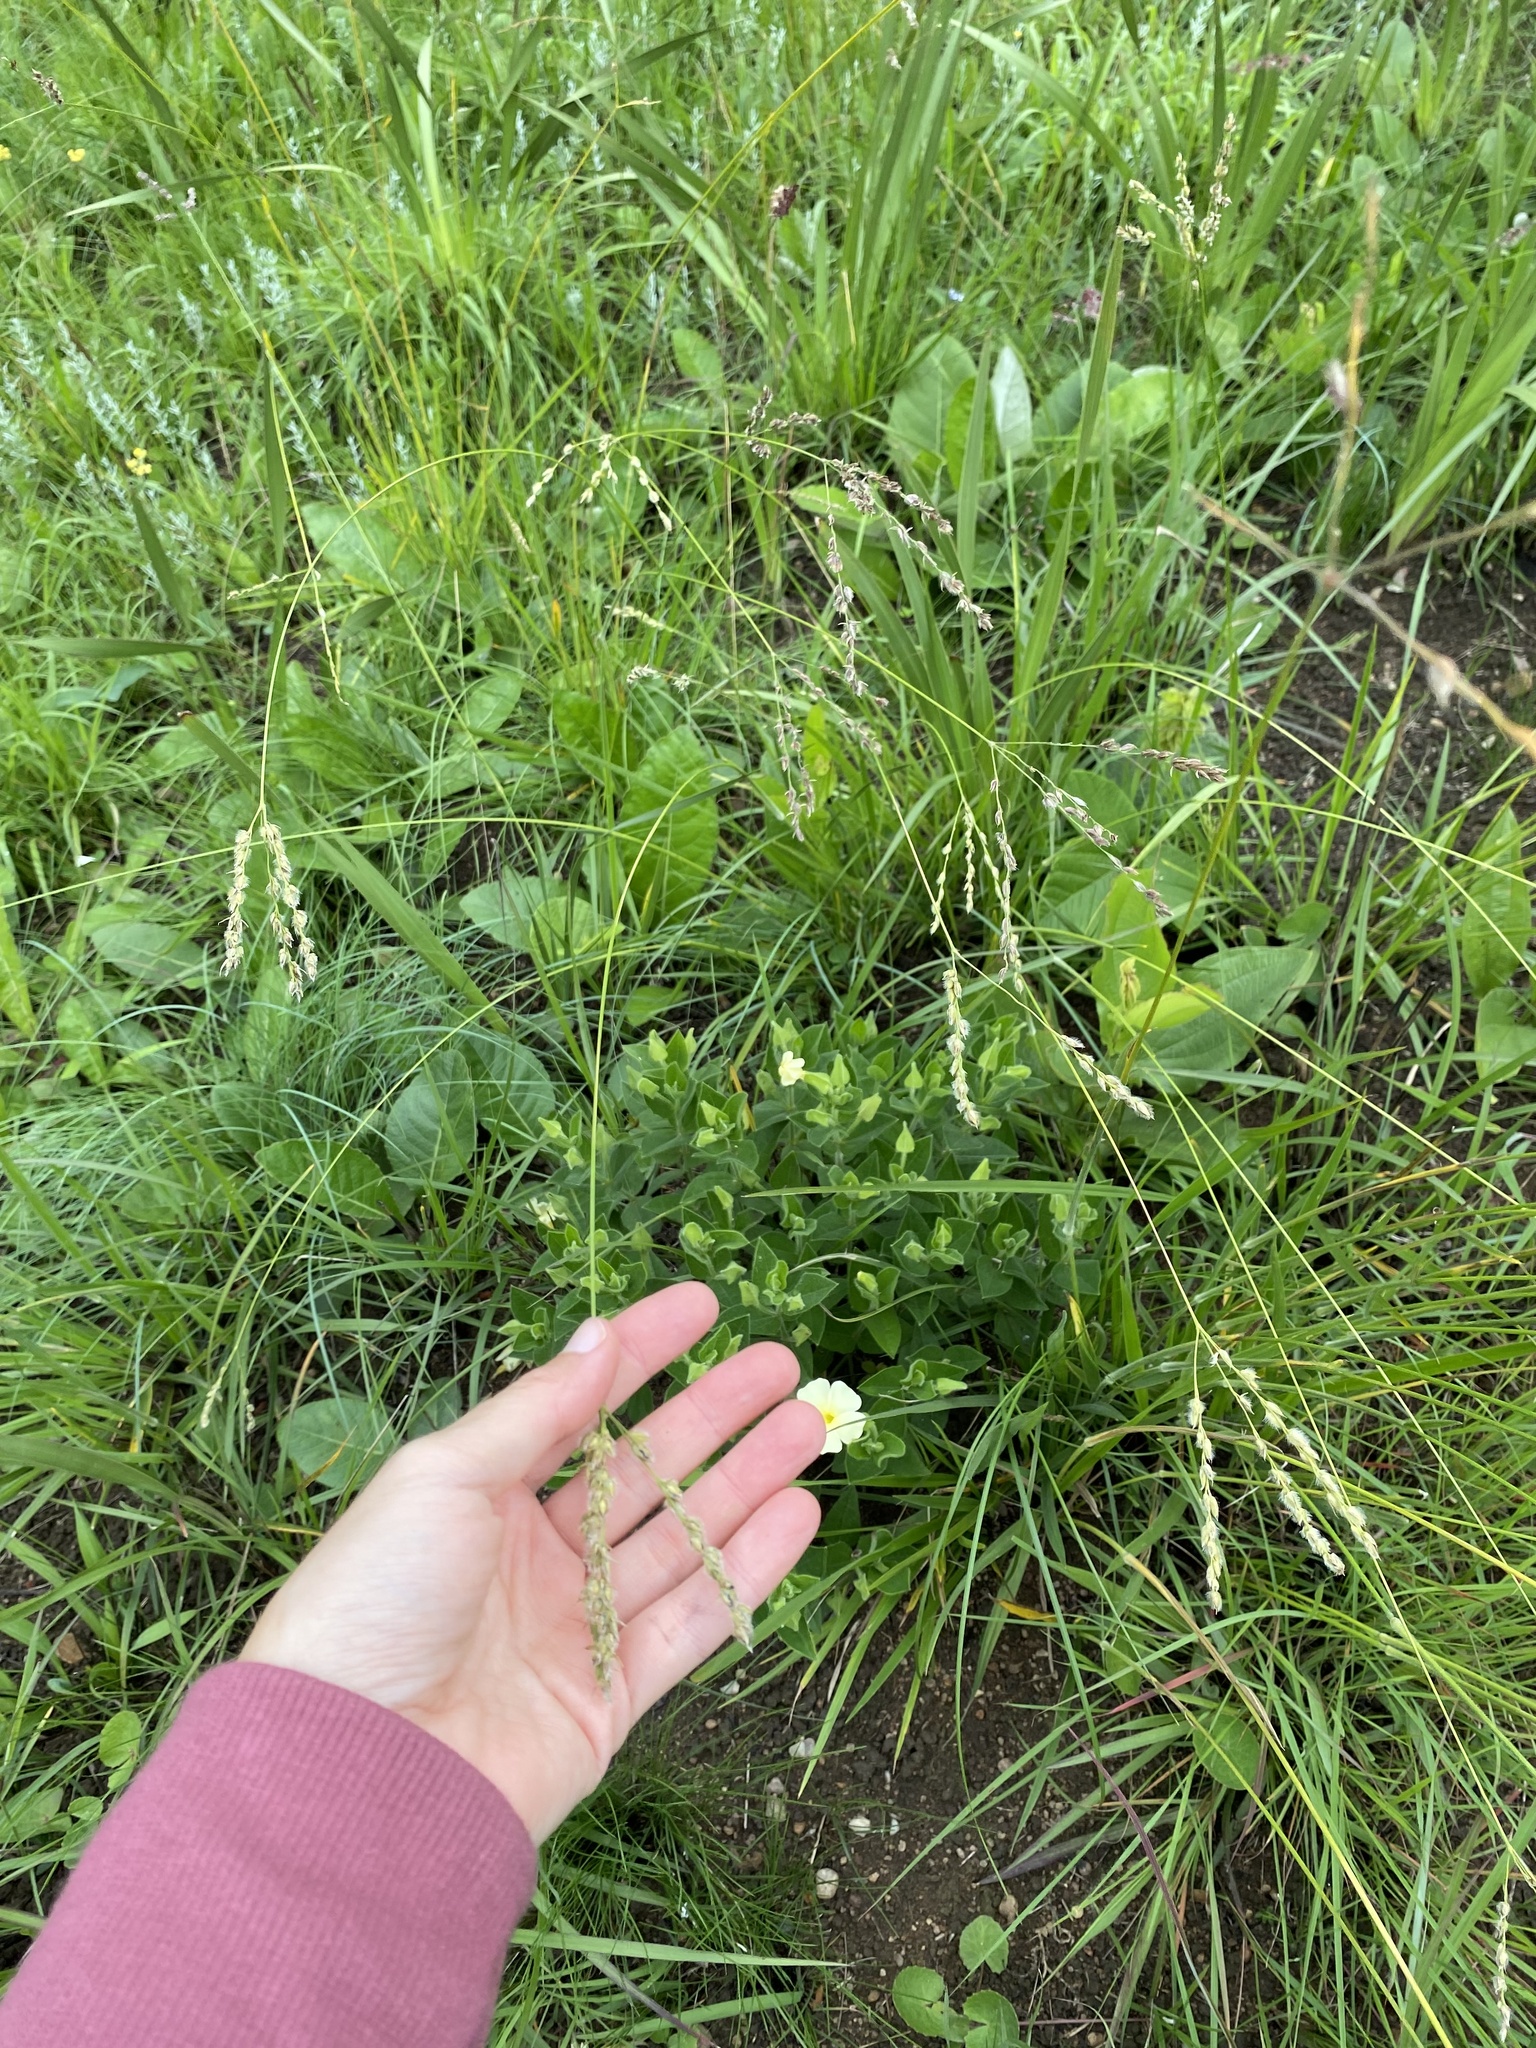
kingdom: Plantae
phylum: Tracheophyta
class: Magnoliopsida
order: Lamiales
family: Acanthaceae
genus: Thunbergia
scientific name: Thunbergia atriplicifolia
